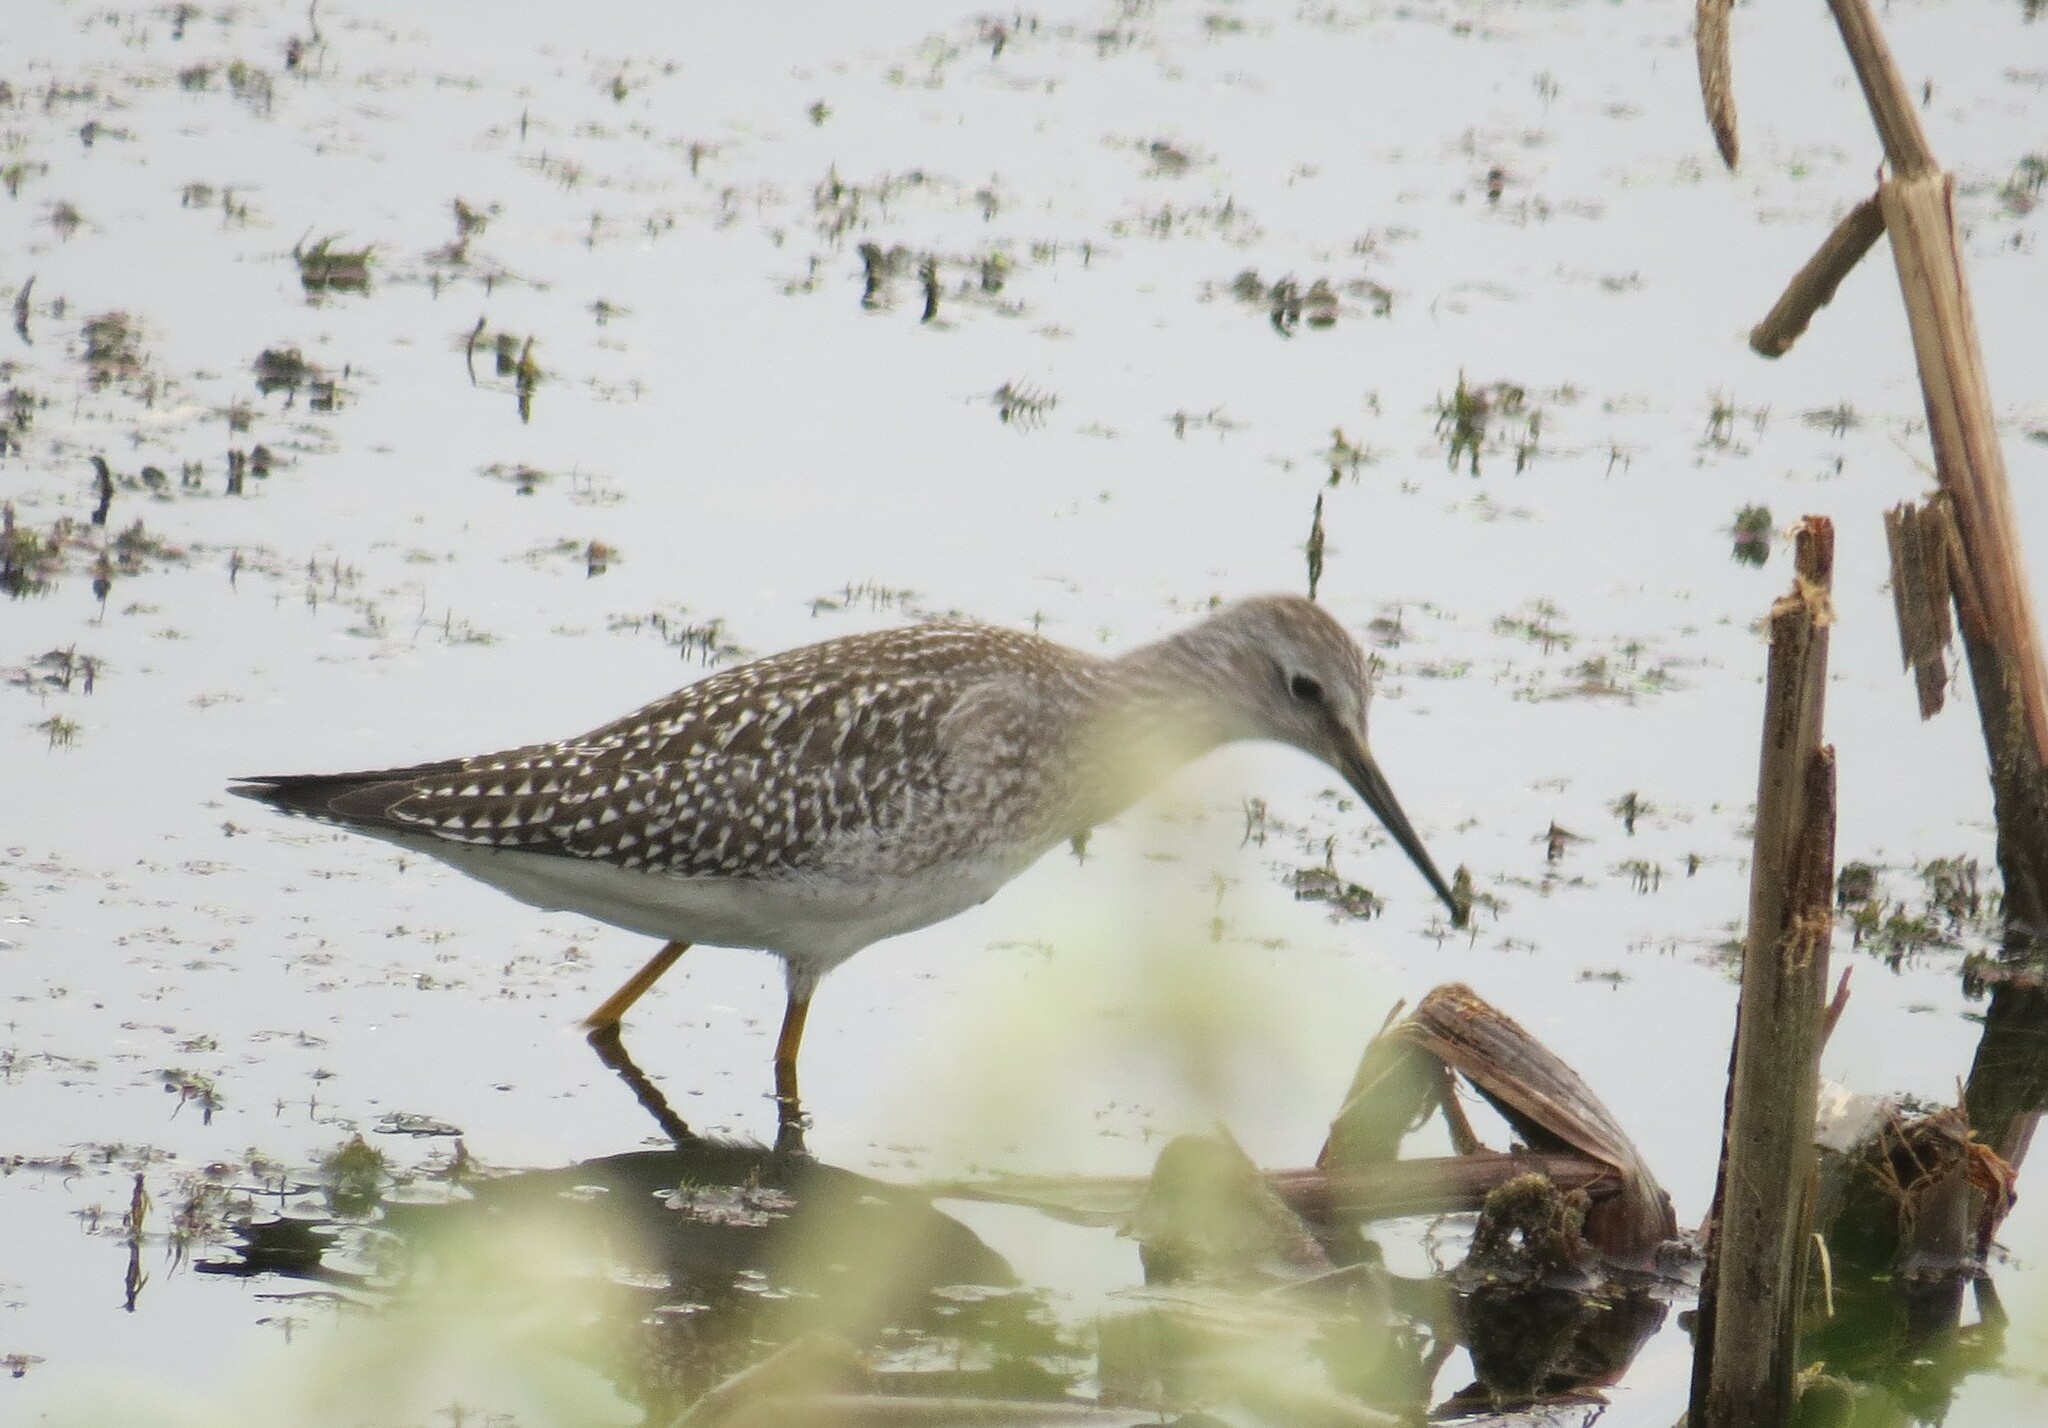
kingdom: Animalia
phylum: Chordata
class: Aves
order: Charadriiformes
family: Scolopacidae
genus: Tringa
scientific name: Tringa flavipes
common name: Lesser yellowlegs
